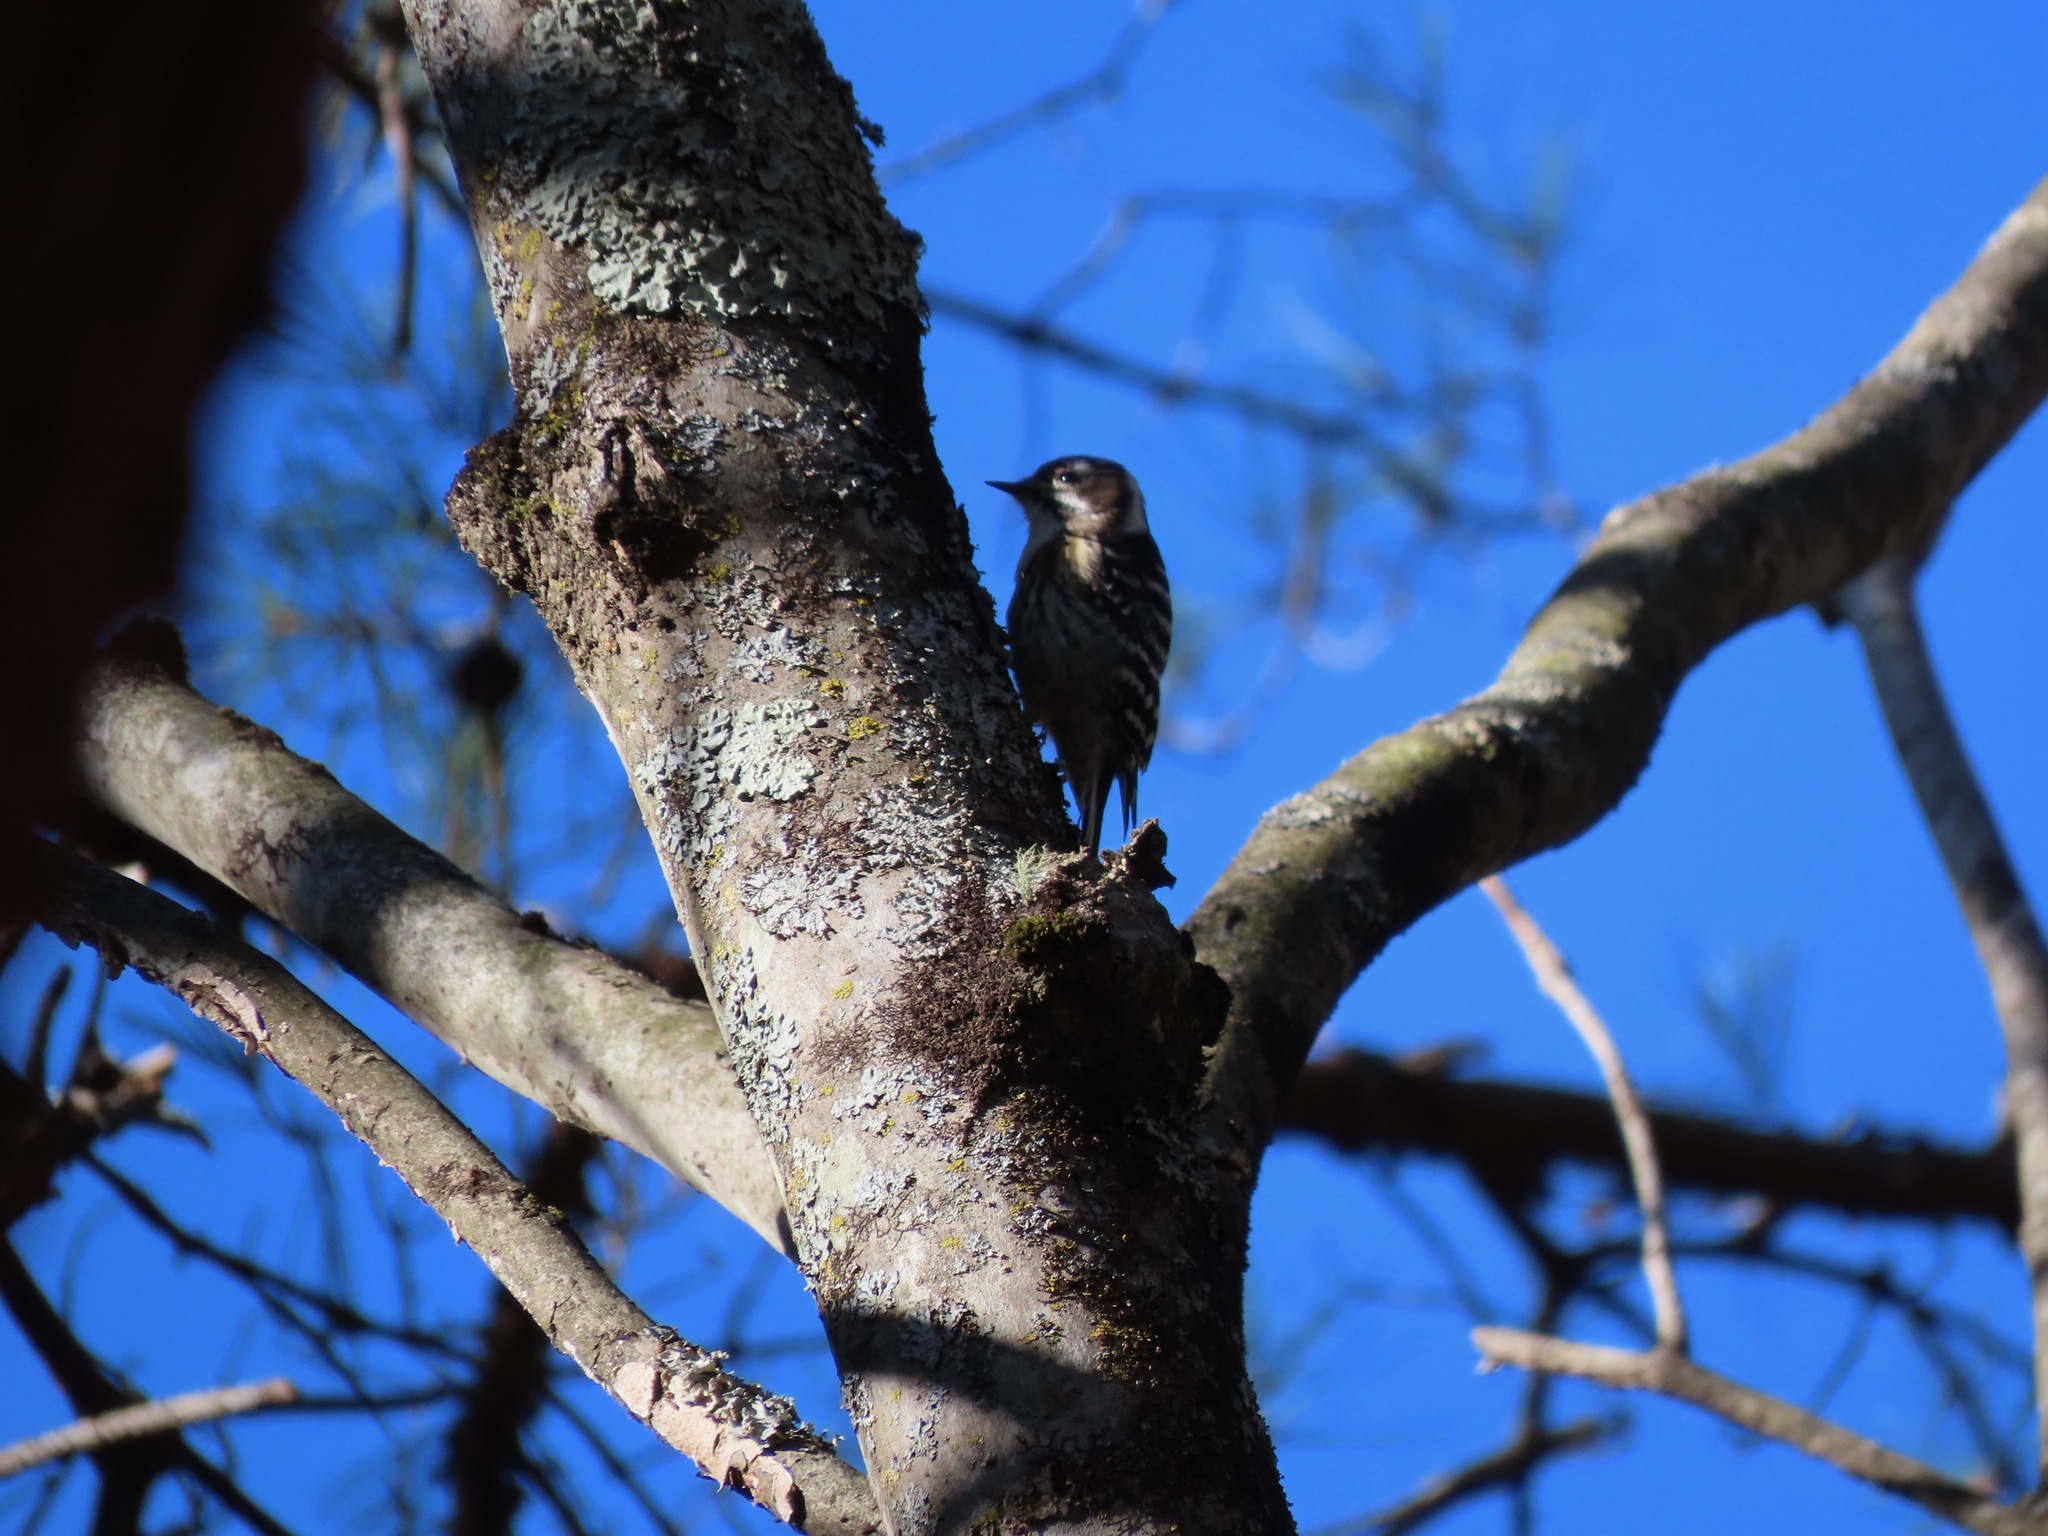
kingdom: Animalia
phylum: Chordata
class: Aves
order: Piciformes
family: Picidae
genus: Yungipicus
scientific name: Yungipicus kizuki
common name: Japanese pygmy woodpecker
